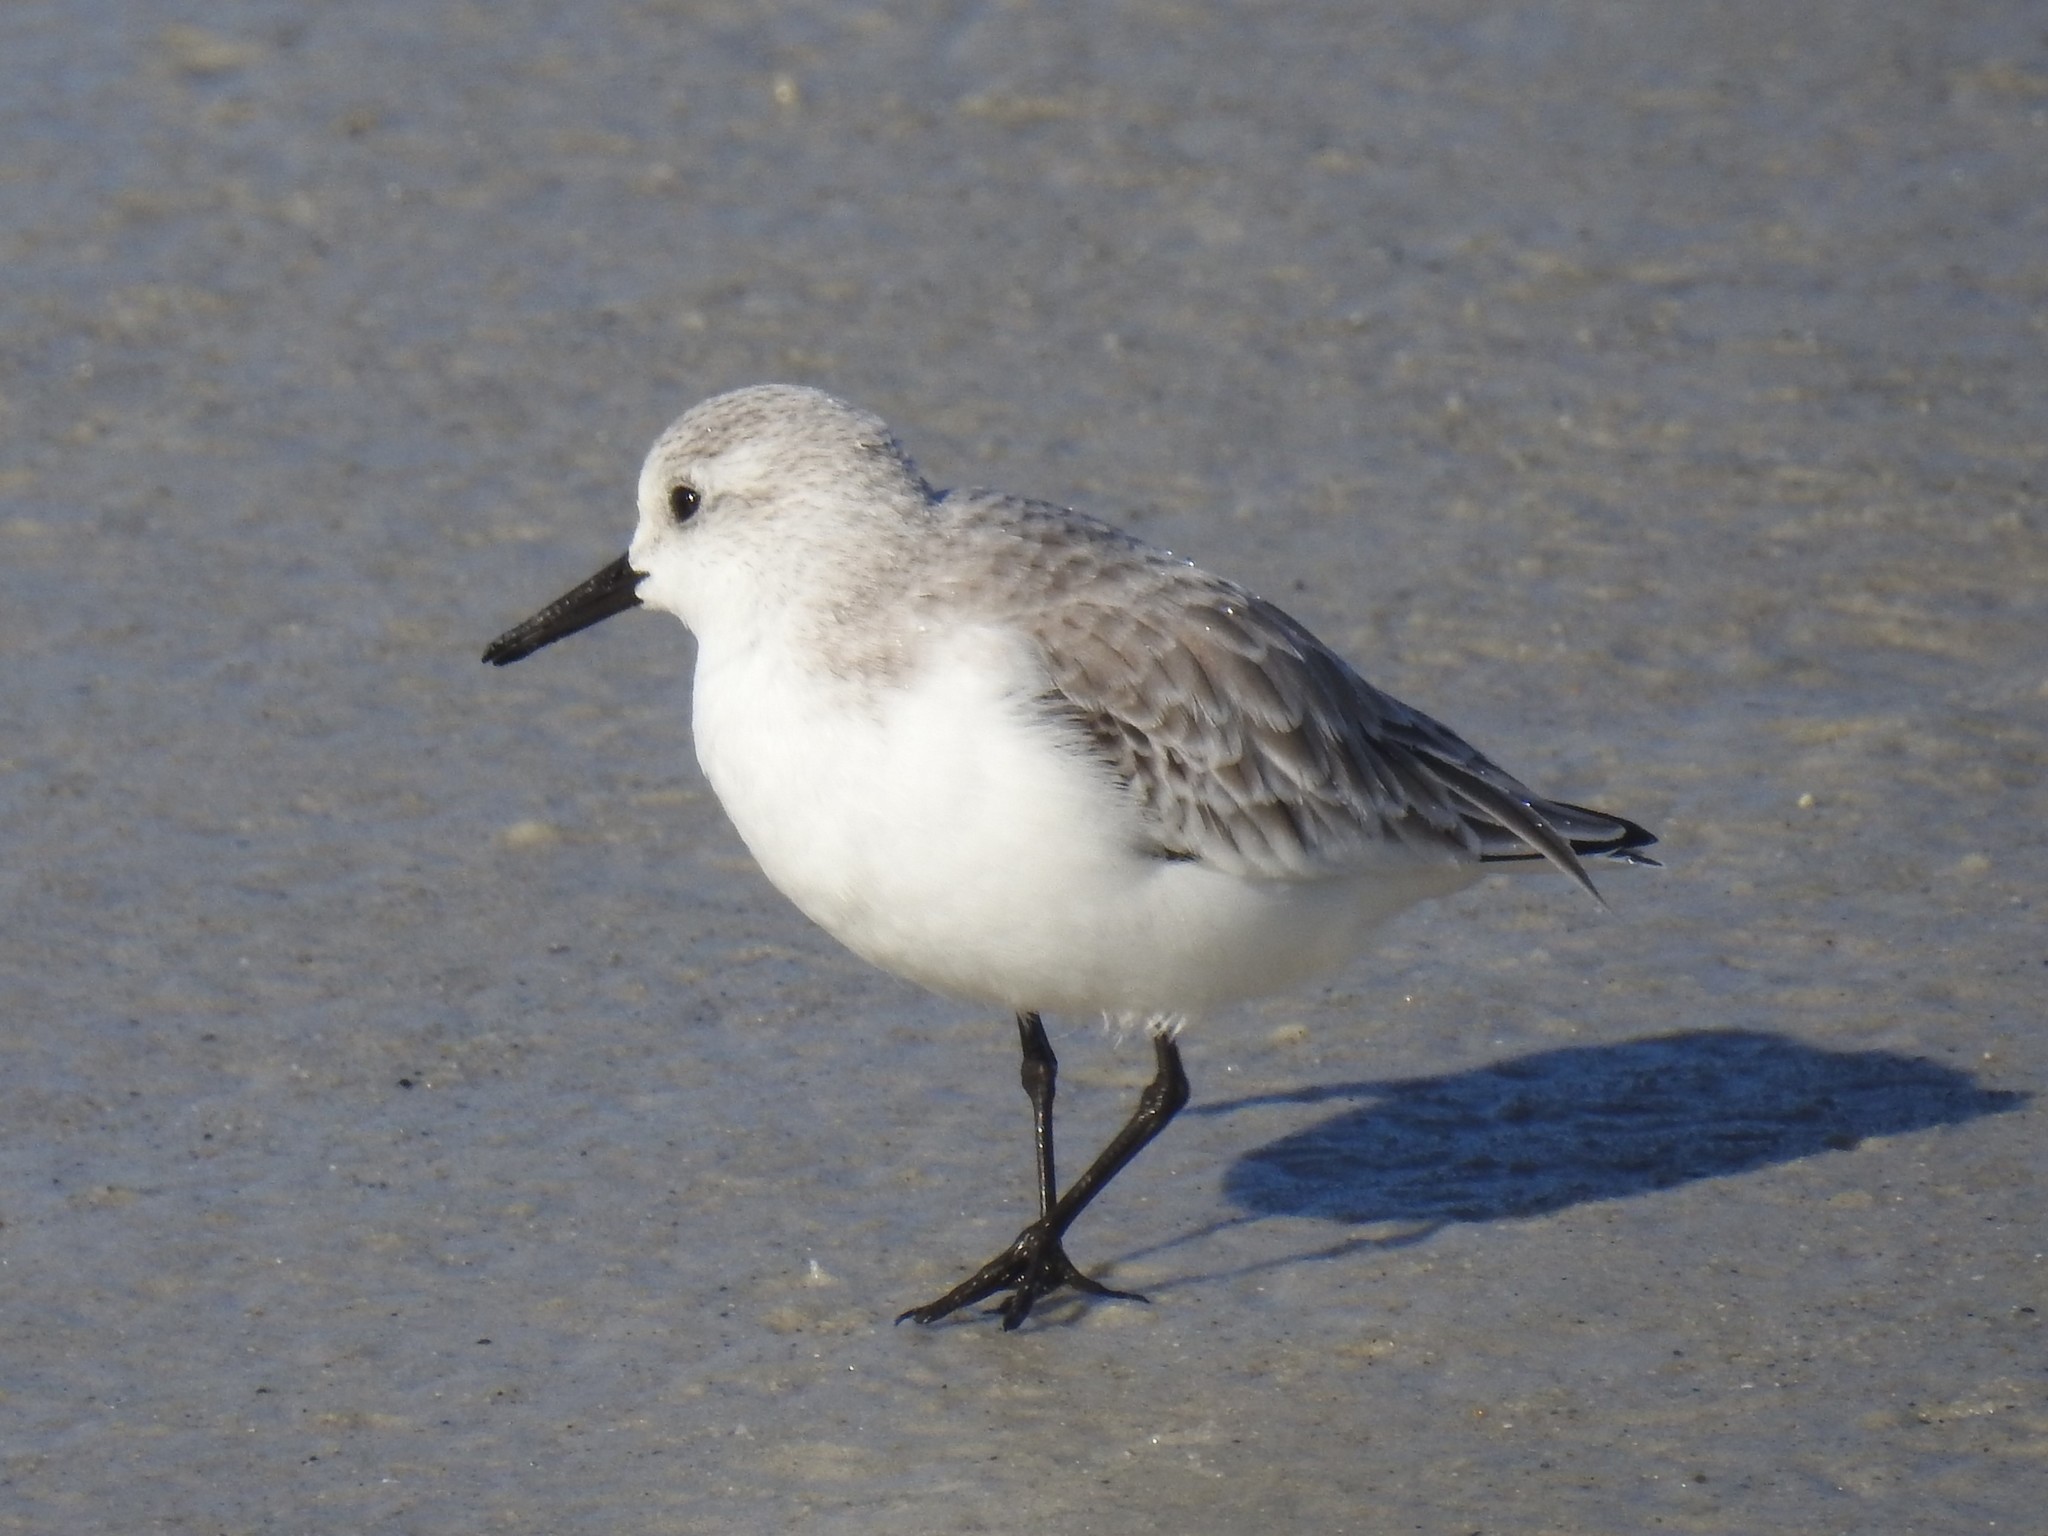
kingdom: Animalia
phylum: Chordata
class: Aves
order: Charadriiformes
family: Scolopacidae
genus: Calidris
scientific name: Calidris alba
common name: Sanderling
